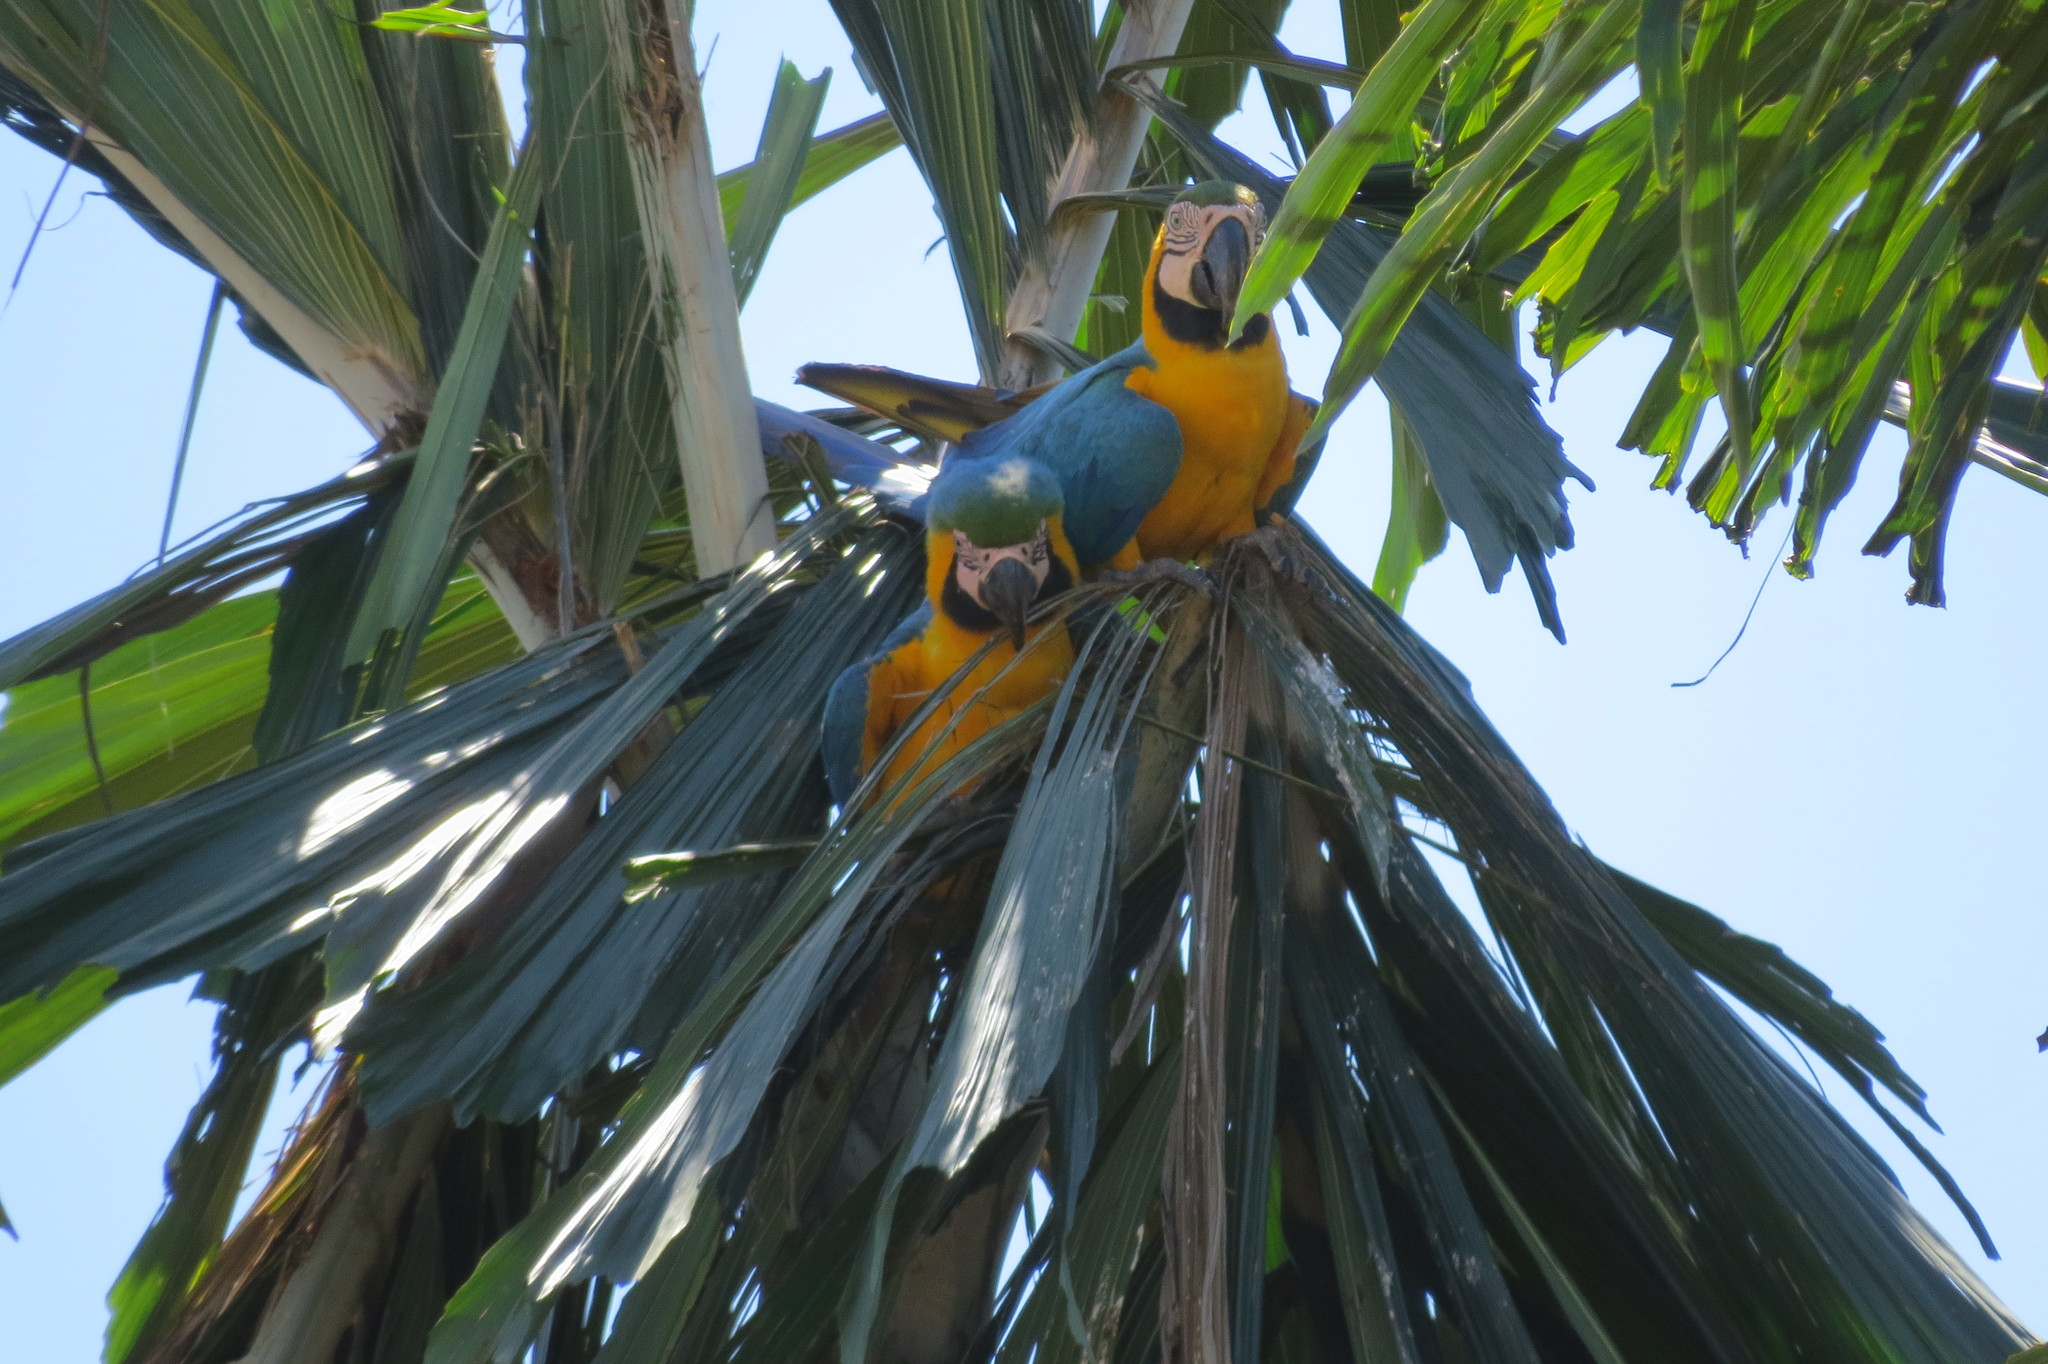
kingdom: Animalia
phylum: Chordata
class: Aves
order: Psittaciformes
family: Psittacidae
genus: Ara
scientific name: Ara ararauna
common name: Blue-and-yellow macaw
